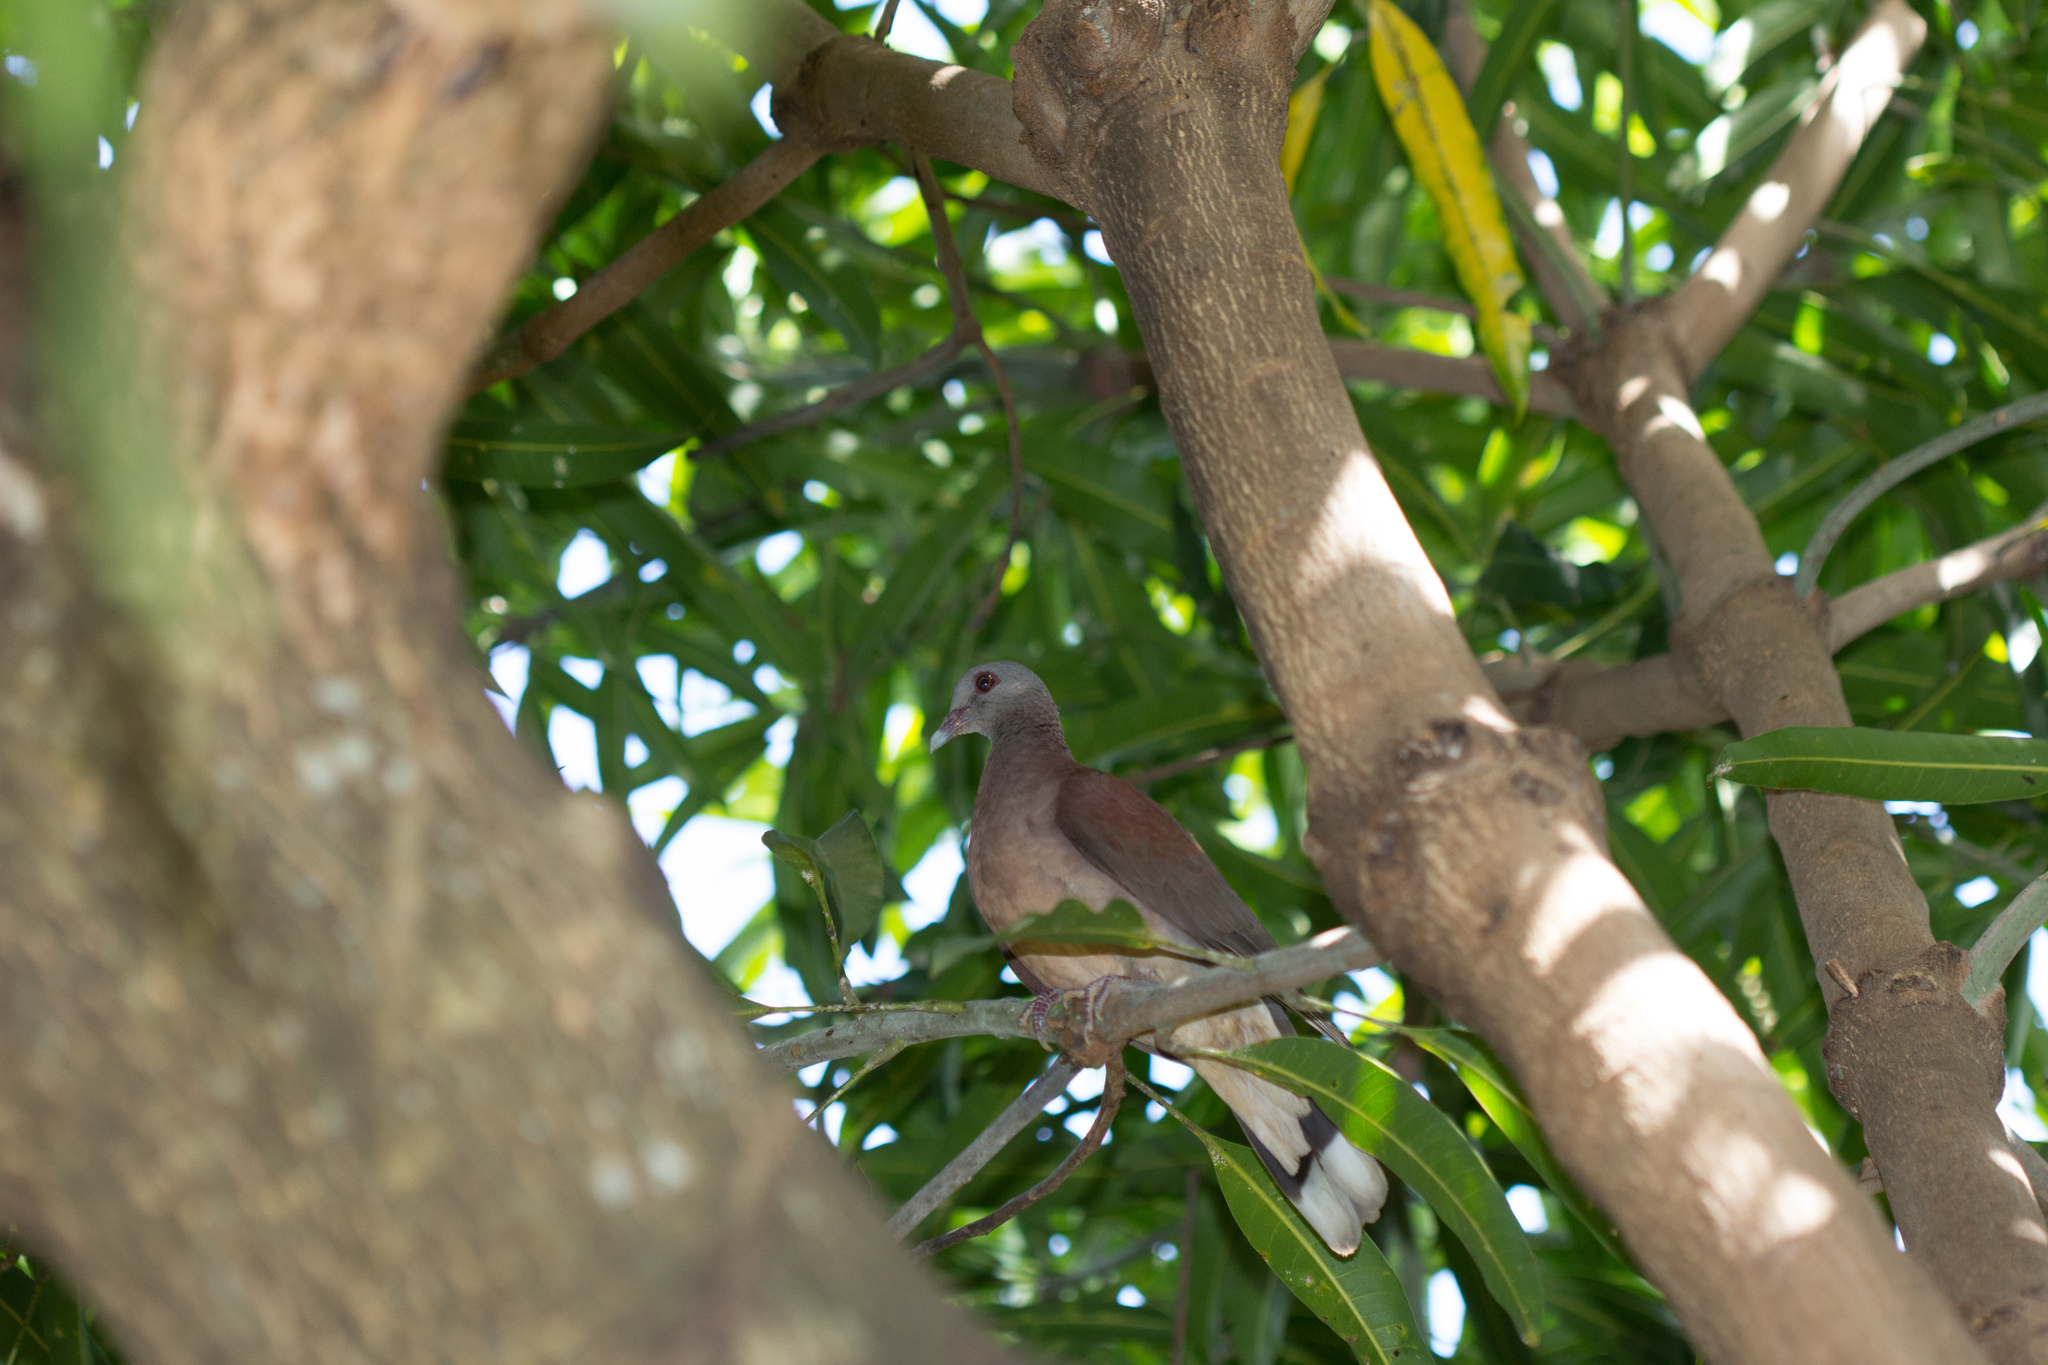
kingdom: Animalia
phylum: Chordata
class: Aves
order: Columbiformes
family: Columbidae
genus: Nesoenas
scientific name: Nesoenas picturatus
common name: Malagasy turtle dove
